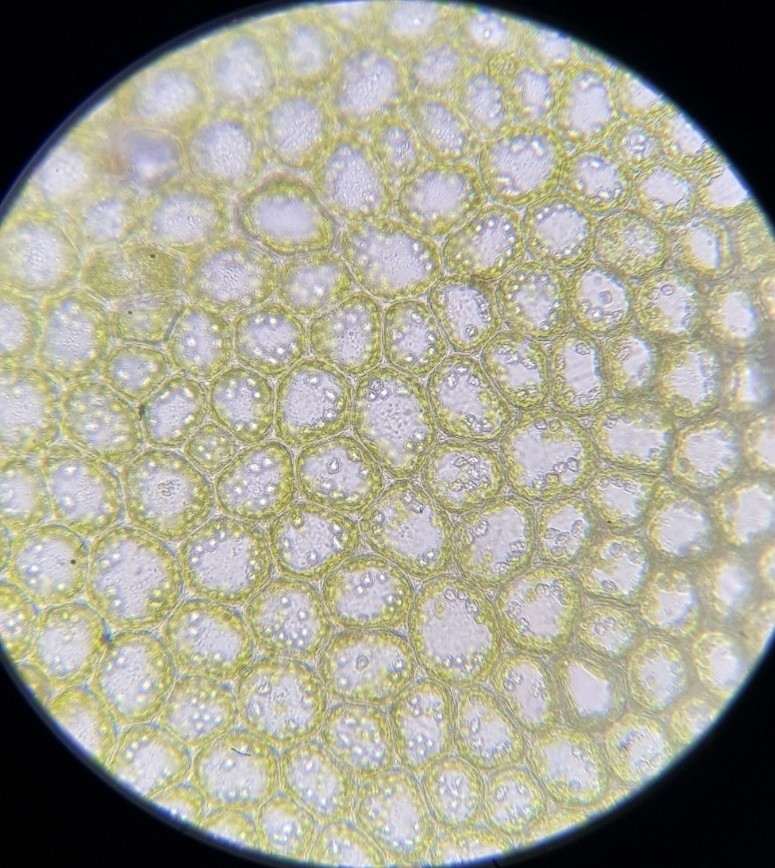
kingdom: Plantae
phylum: Marchantiophyta
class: Jungermanniopsida
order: Jungermanniales
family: Plagiochilaceae
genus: Plagiochila
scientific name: Plagiochila porelloides
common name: Lesser featherwort
